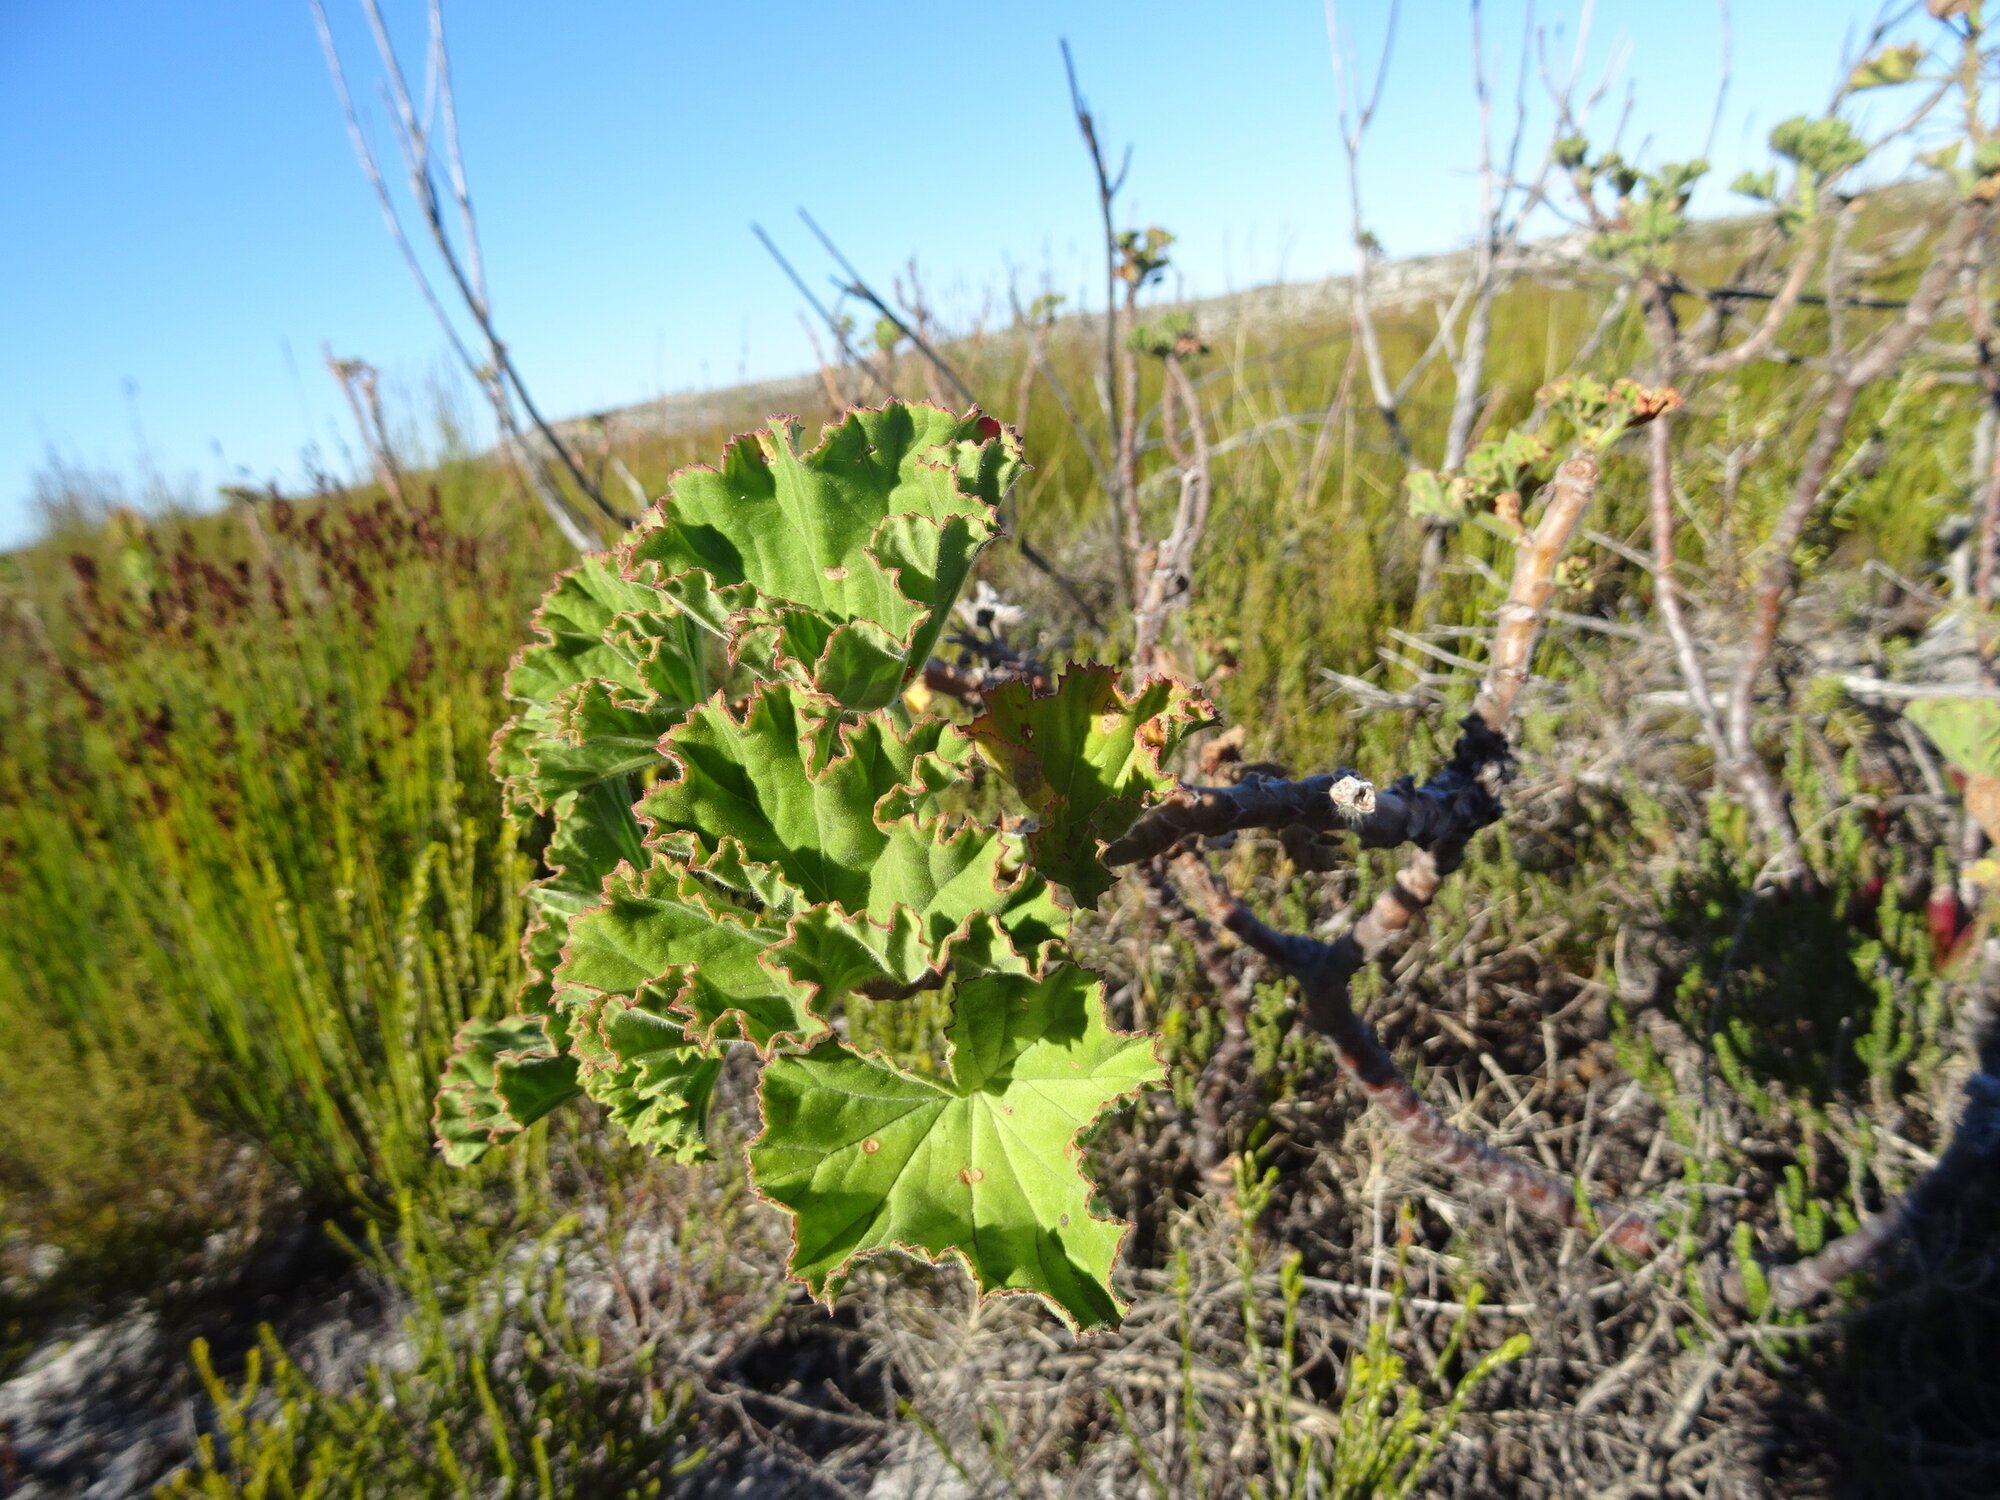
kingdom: Plantae
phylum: Tracheophyta
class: Magnoliopsida
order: Geraniales
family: Geraniaceae
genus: Pelargonium
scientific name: Pelargonium cucullatum
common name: Tree pelargonium
